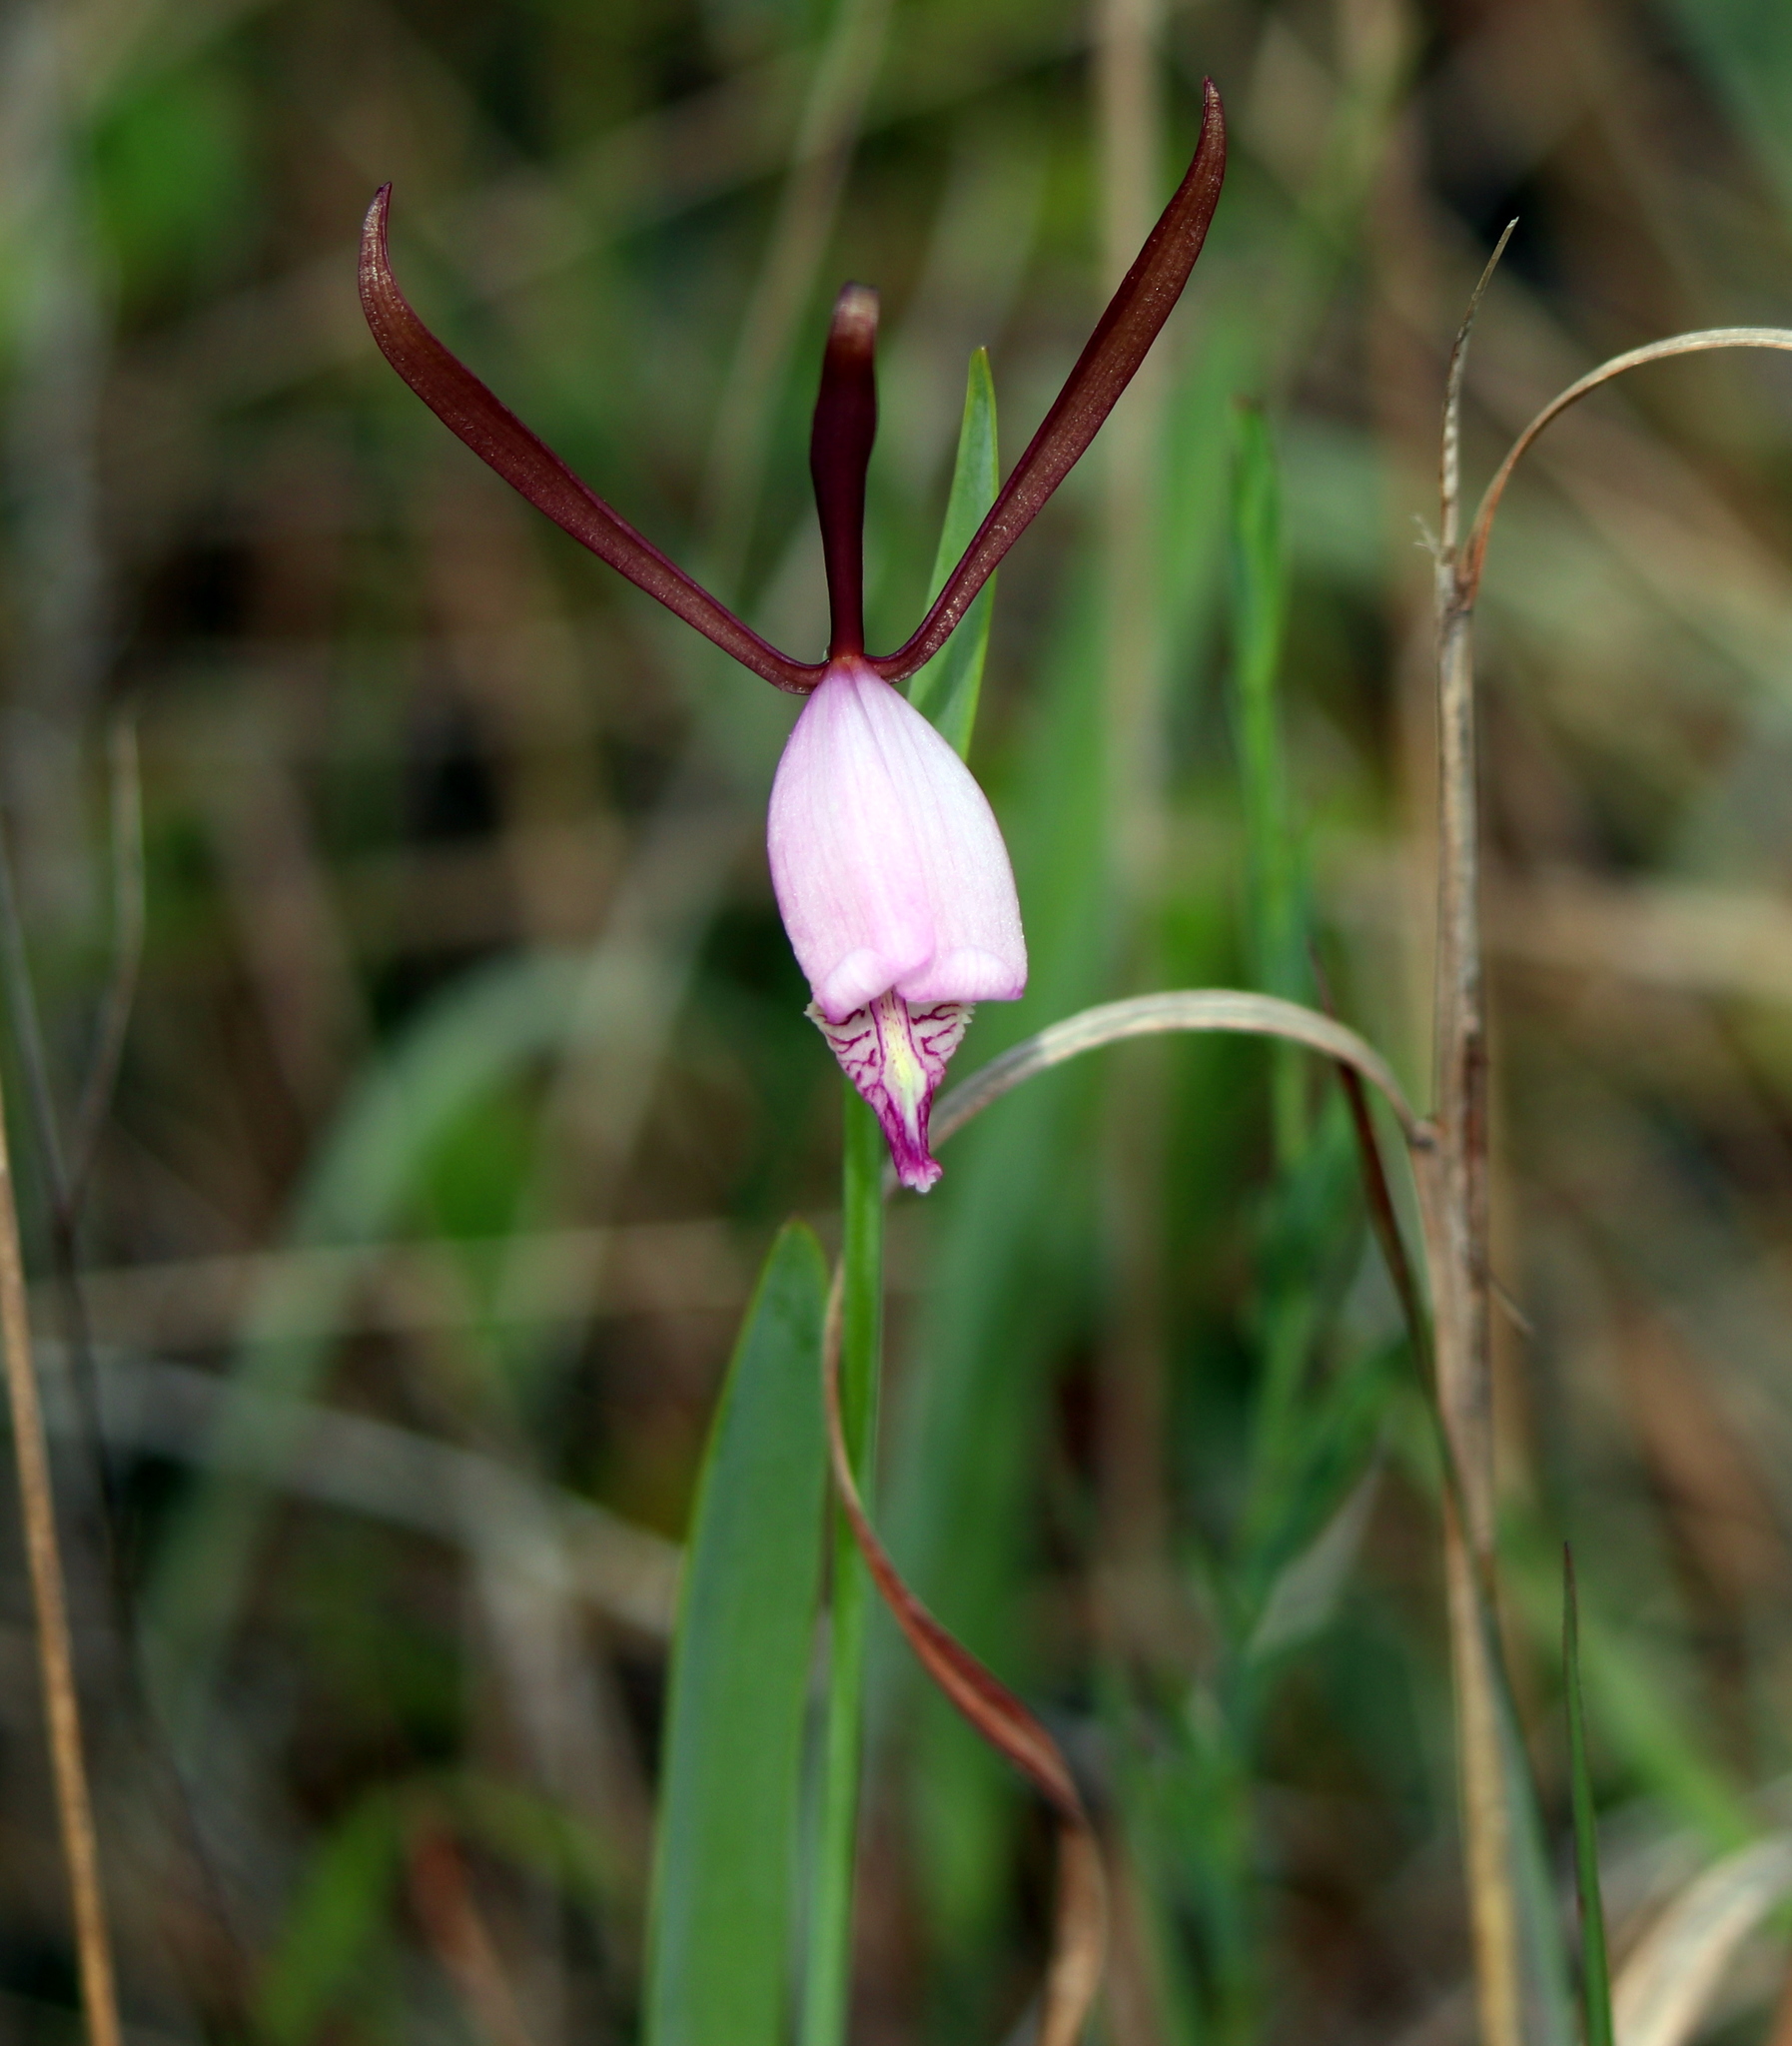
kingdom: Plantae
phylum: Tracheophyta
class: Liliopsida
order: Asparagales
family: Orchidaceae
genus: Cleistesiopsis
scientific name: Cleistesiopsis oricamporum
